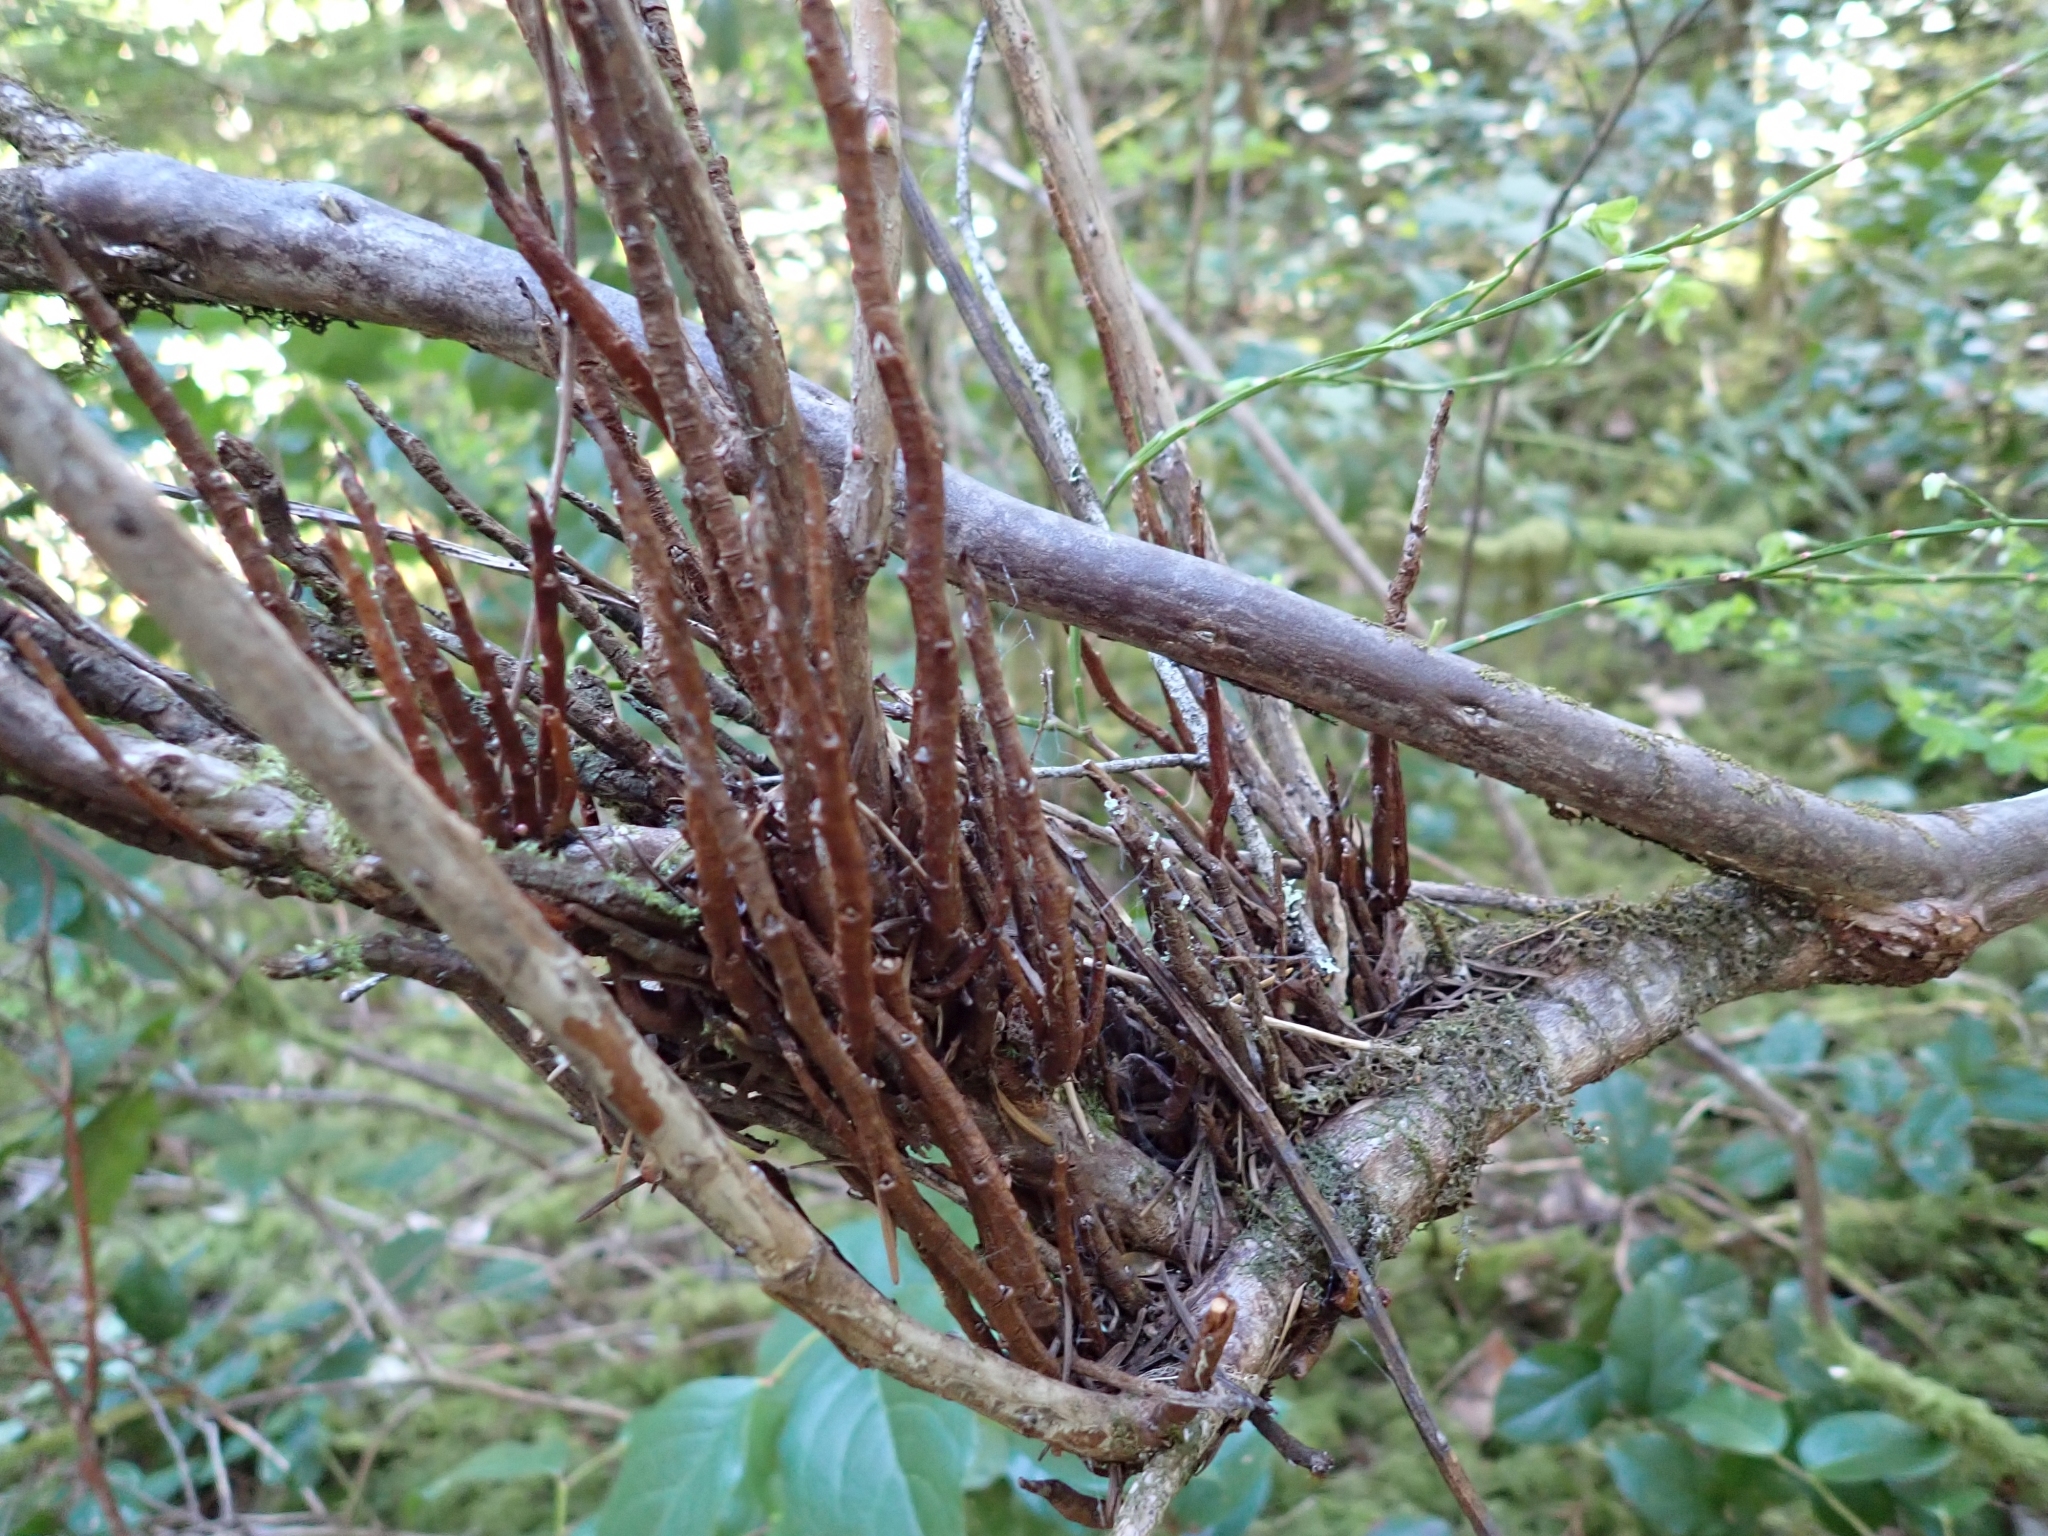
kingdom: Fungi
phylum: Basidiomycota
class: Pucciniomycetes
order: Pucciniales
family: Pucciniastraceae
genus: Calyptospora
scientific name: Calyptospora
